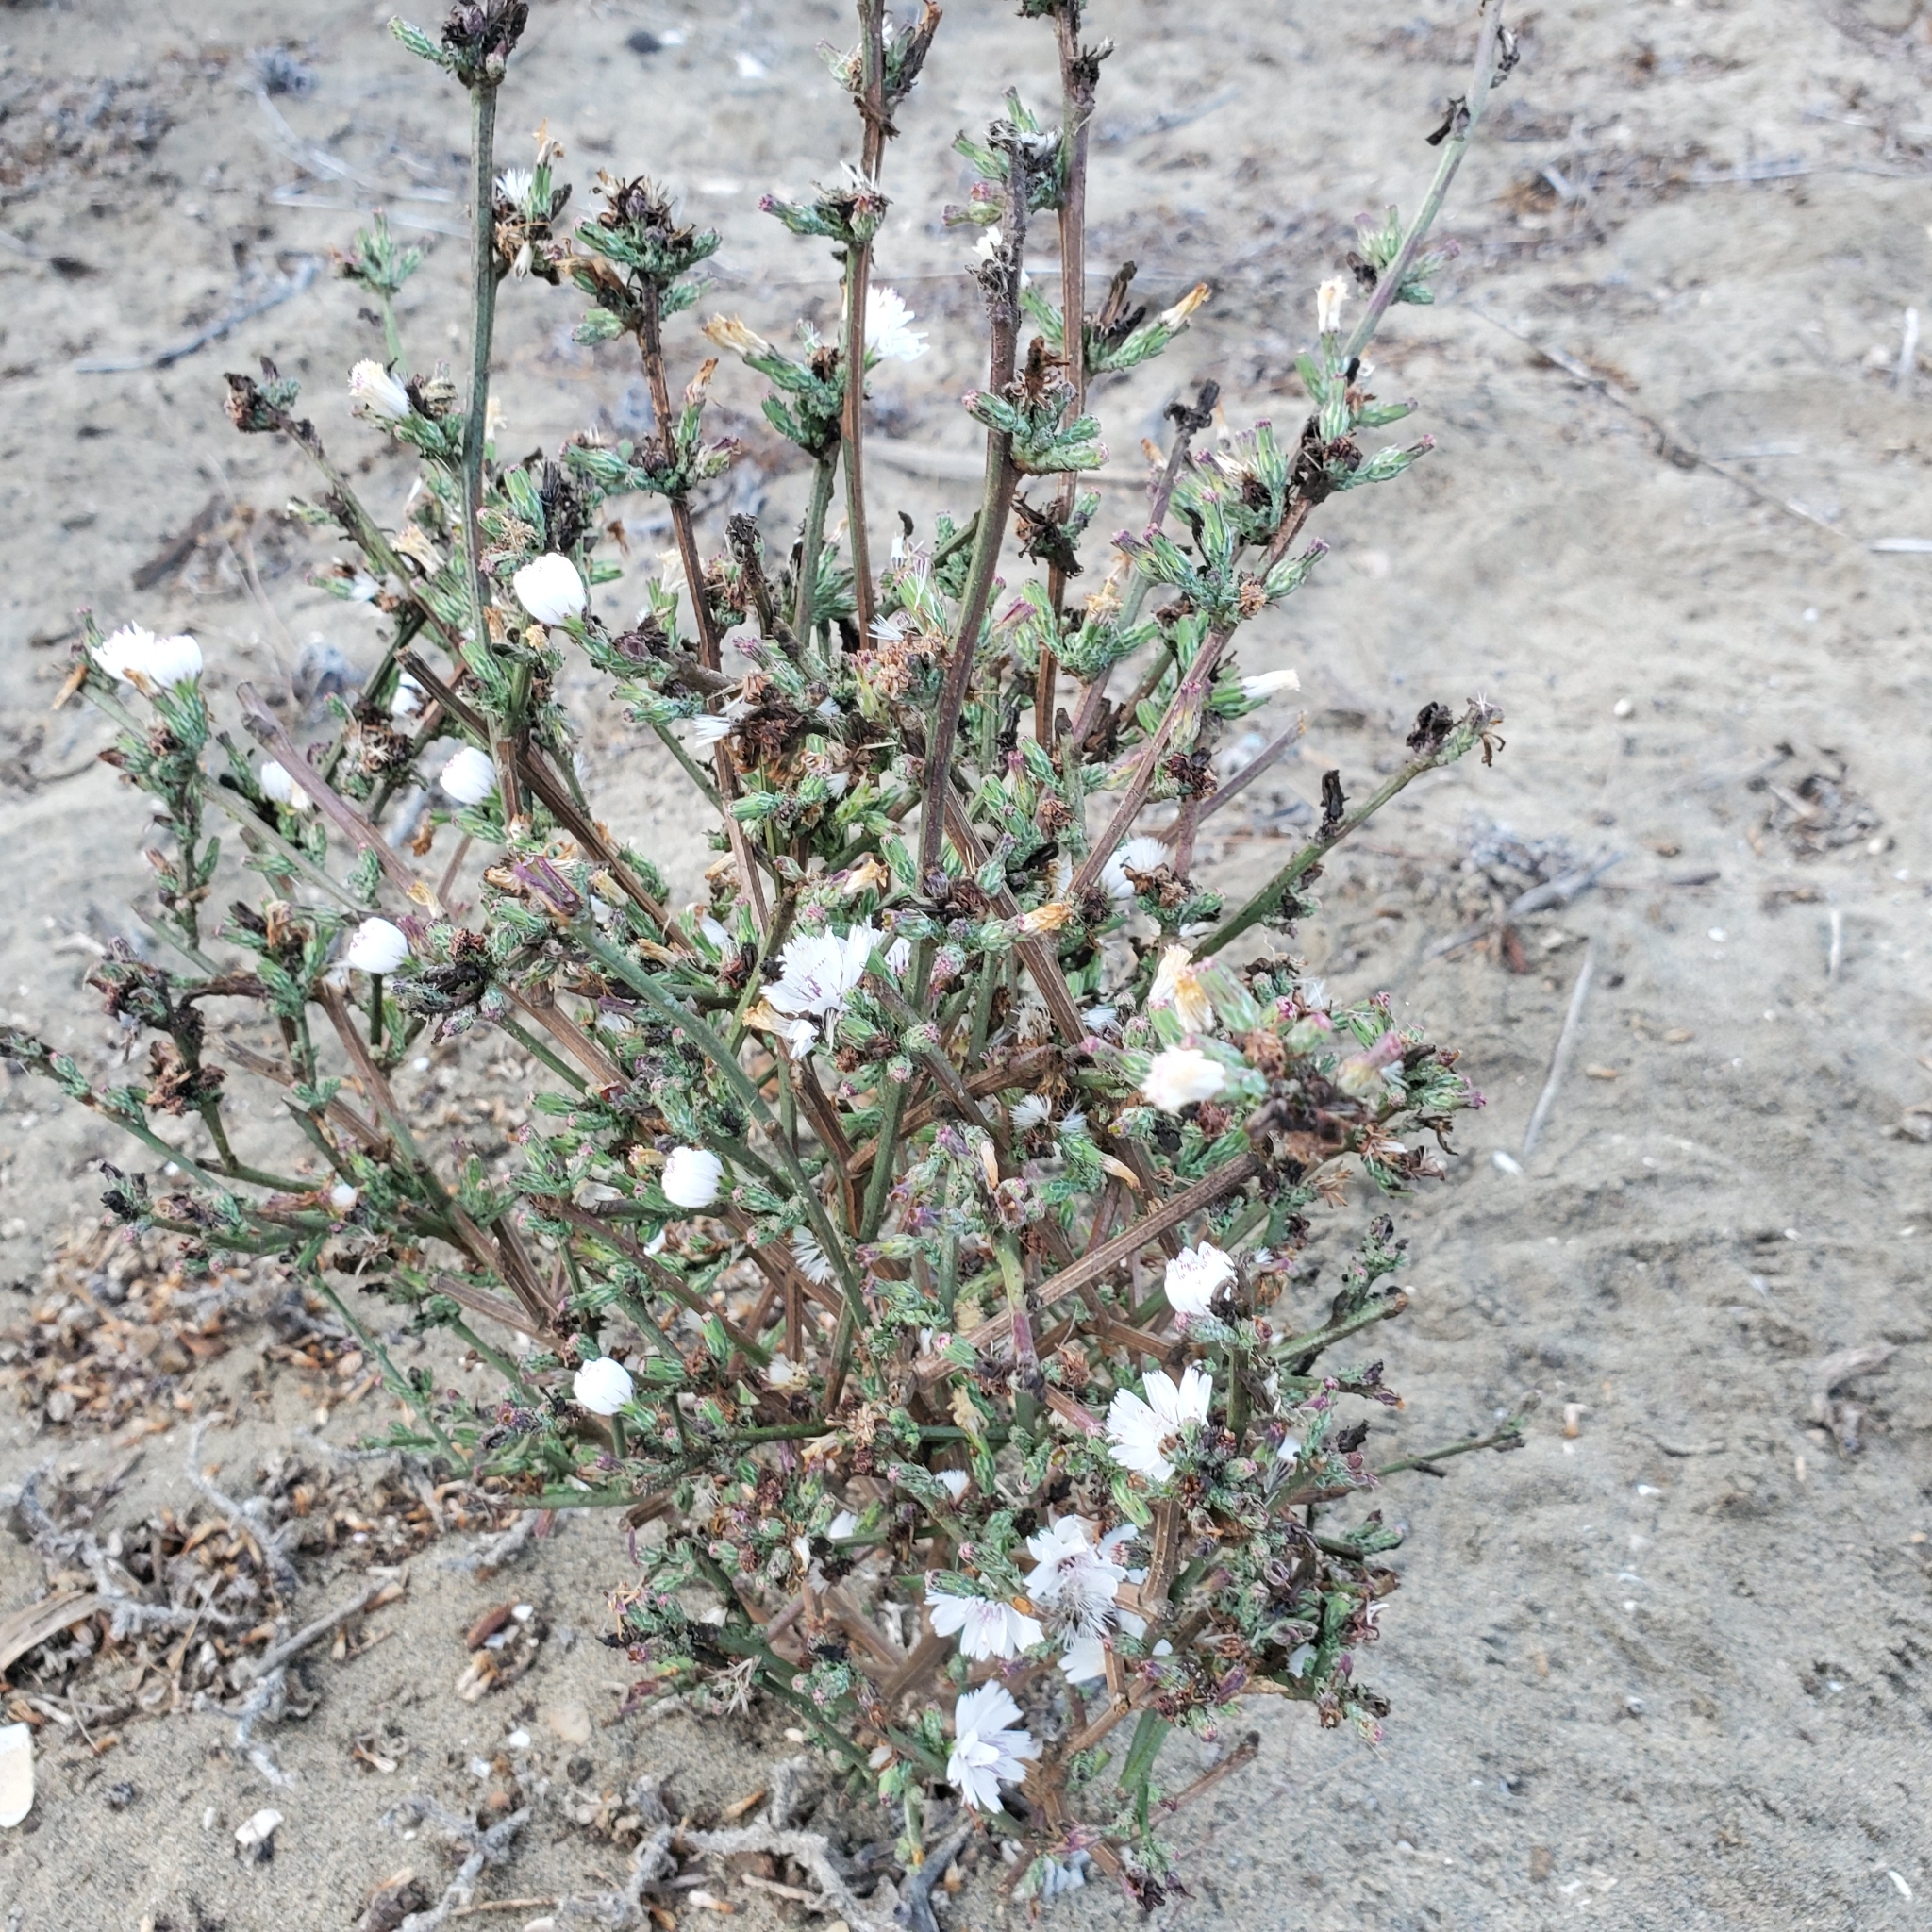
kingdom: Plantae
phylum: Tracheophyta
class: Magnoliopsida
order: Asterales
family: Asteraceae
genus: Stephanomeria
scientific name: Stephanomeria diegensis
